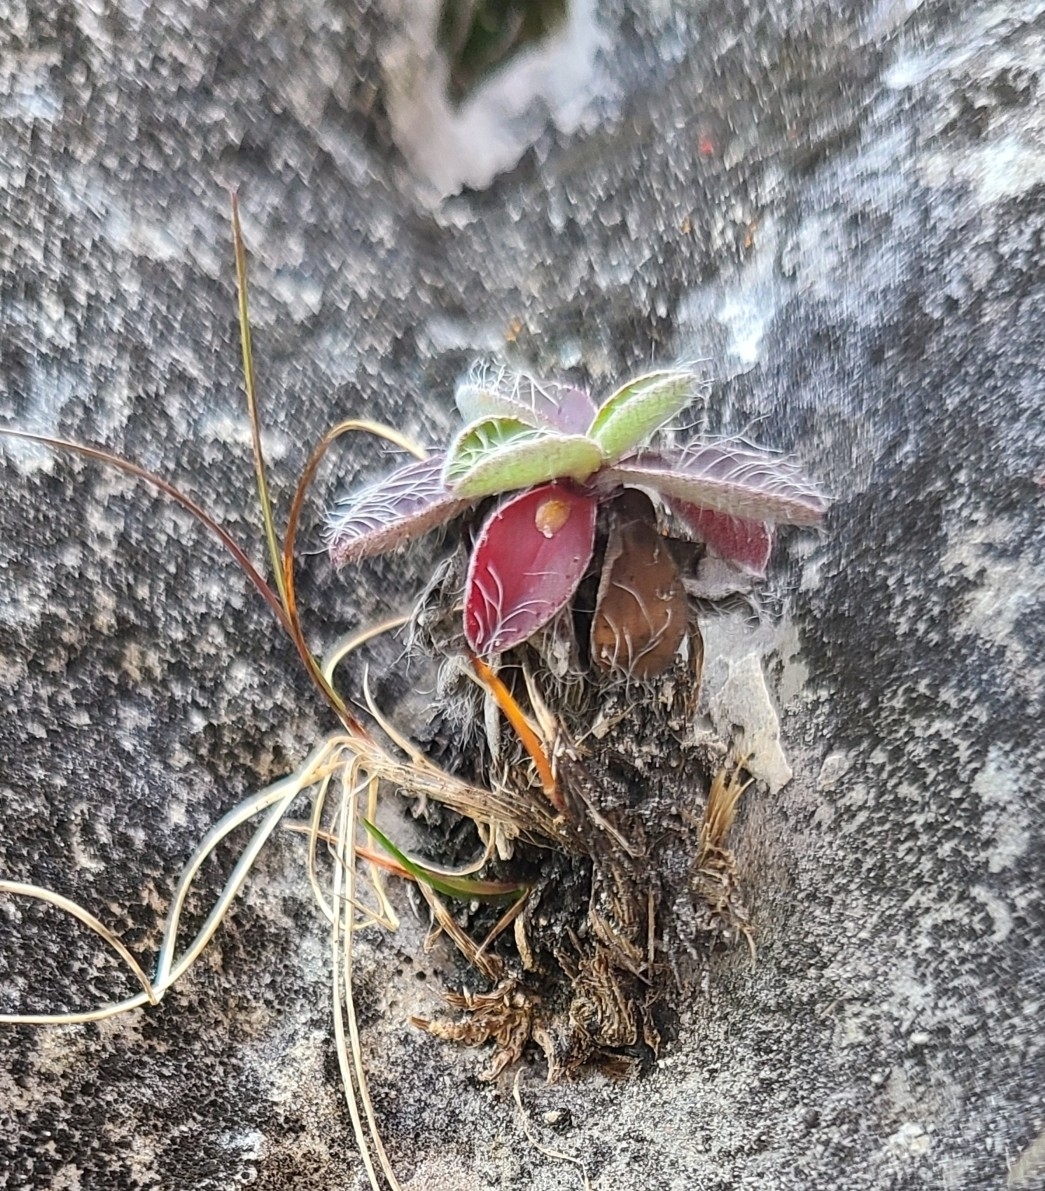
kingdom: Plantae
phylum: Tracheophyta
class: Magnoliopsida
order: Asterales
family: Asteraceae
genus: Pilosella
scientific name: Pilosella officinarum
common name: Mouse-ear hawkweed
